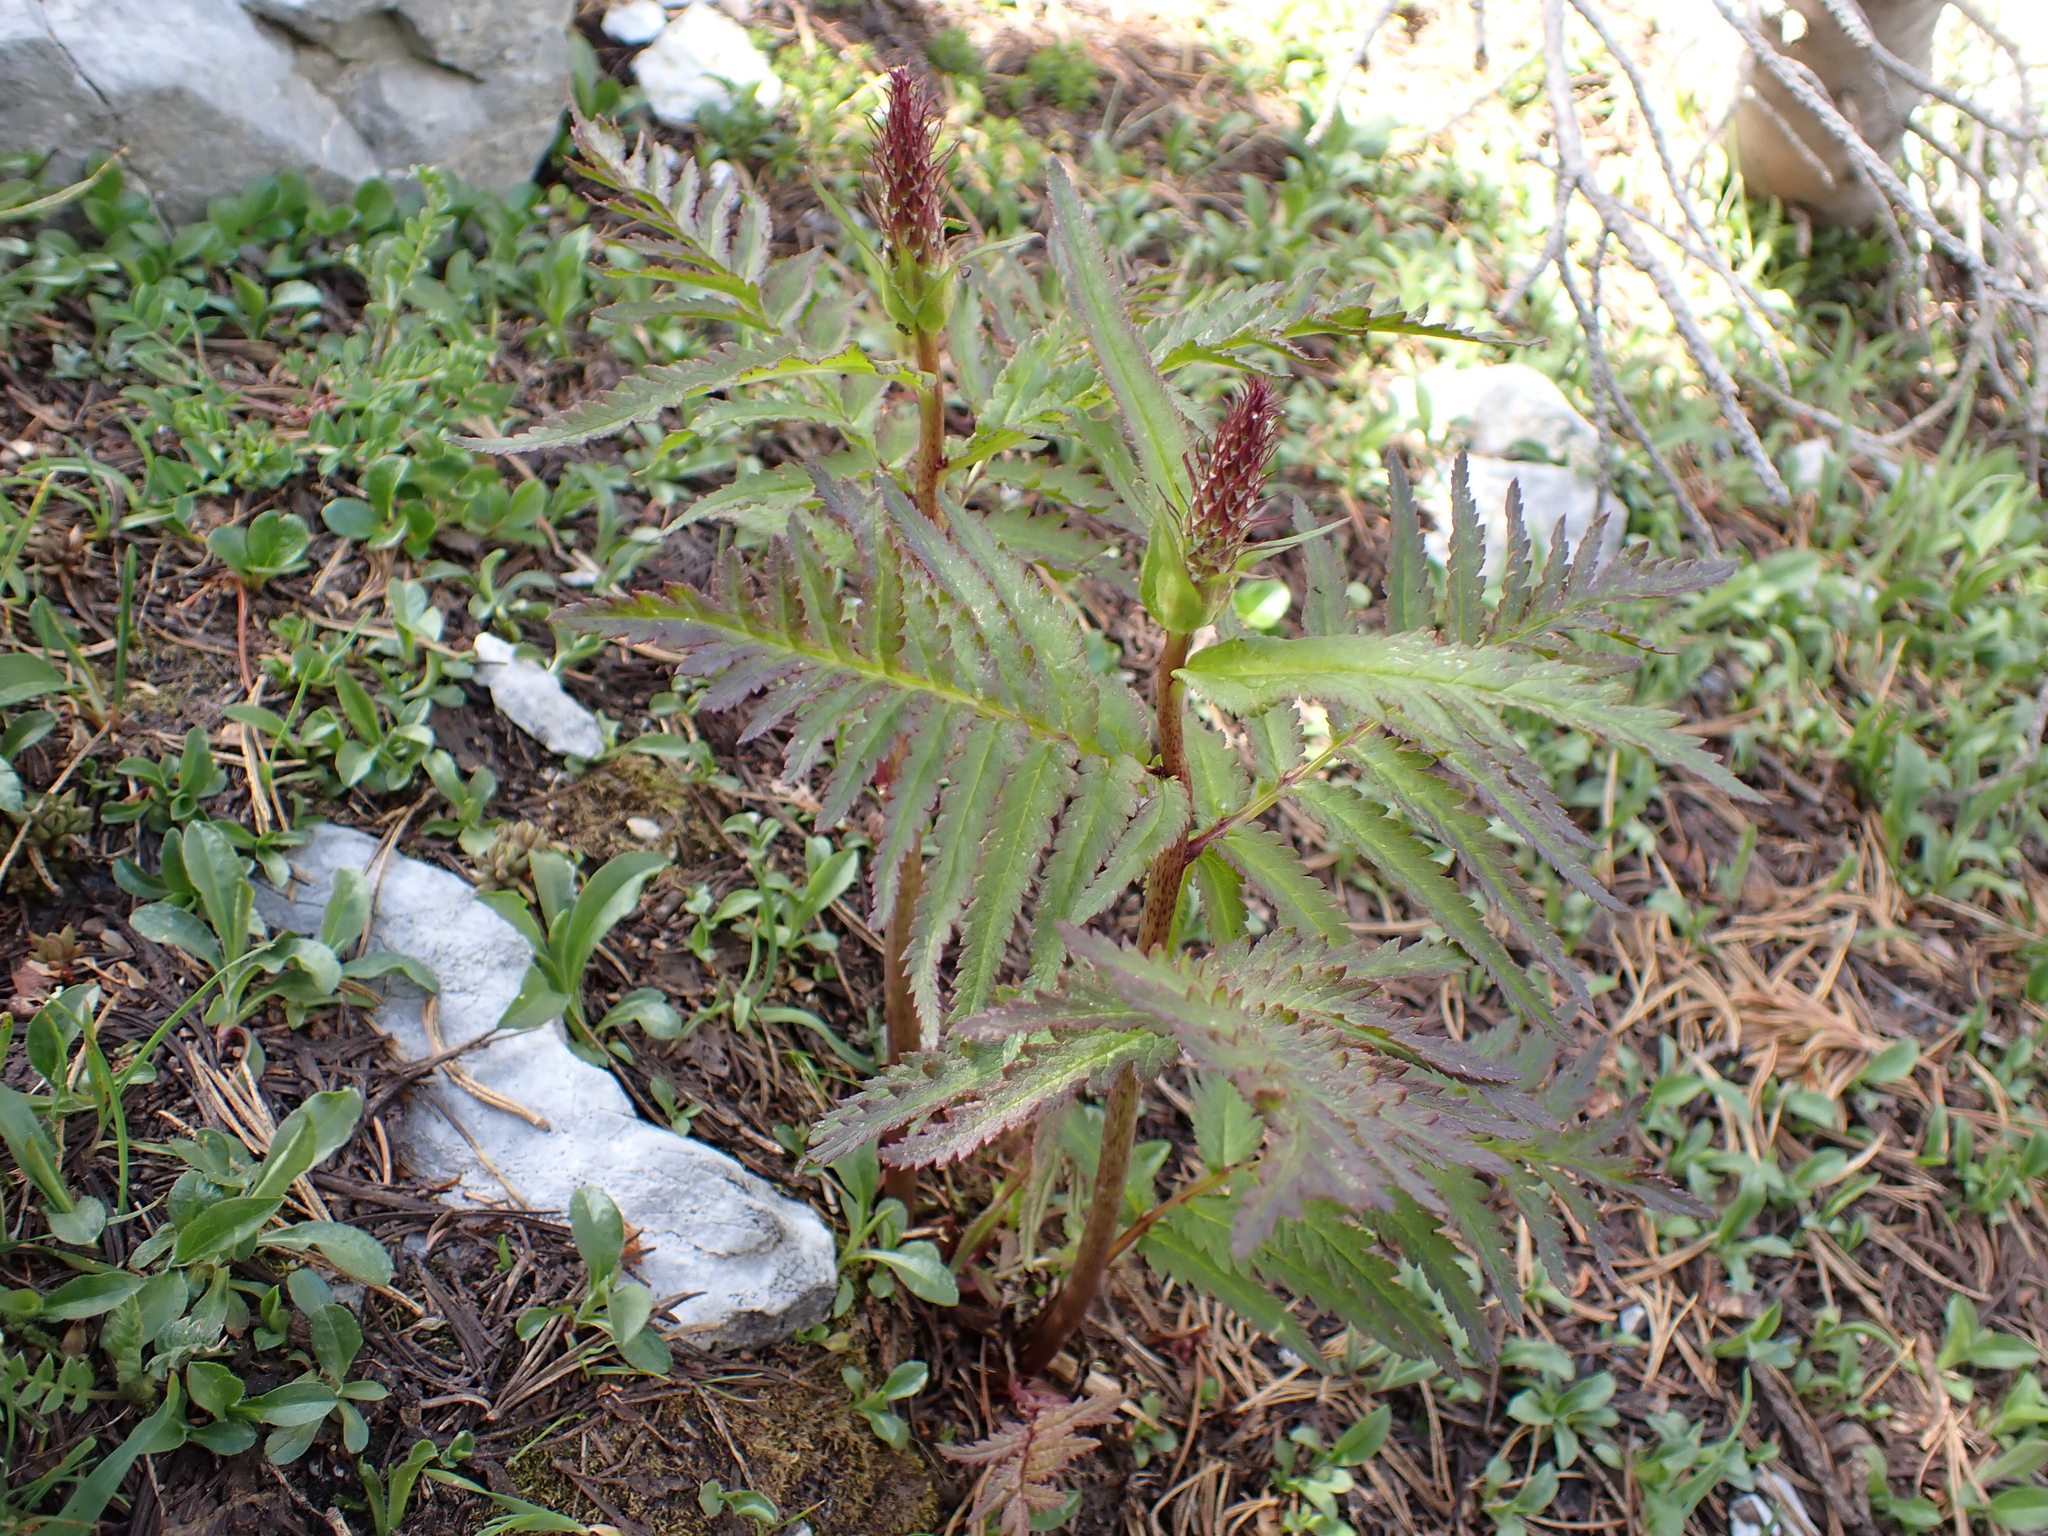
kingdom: Plantae
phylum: Tracheophyta
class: Magnoliopsida
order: Lamiales
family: Orobanchaceae
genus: Pedicularis
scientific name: Pedicularis bracteosa
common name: Bracted lousewort
